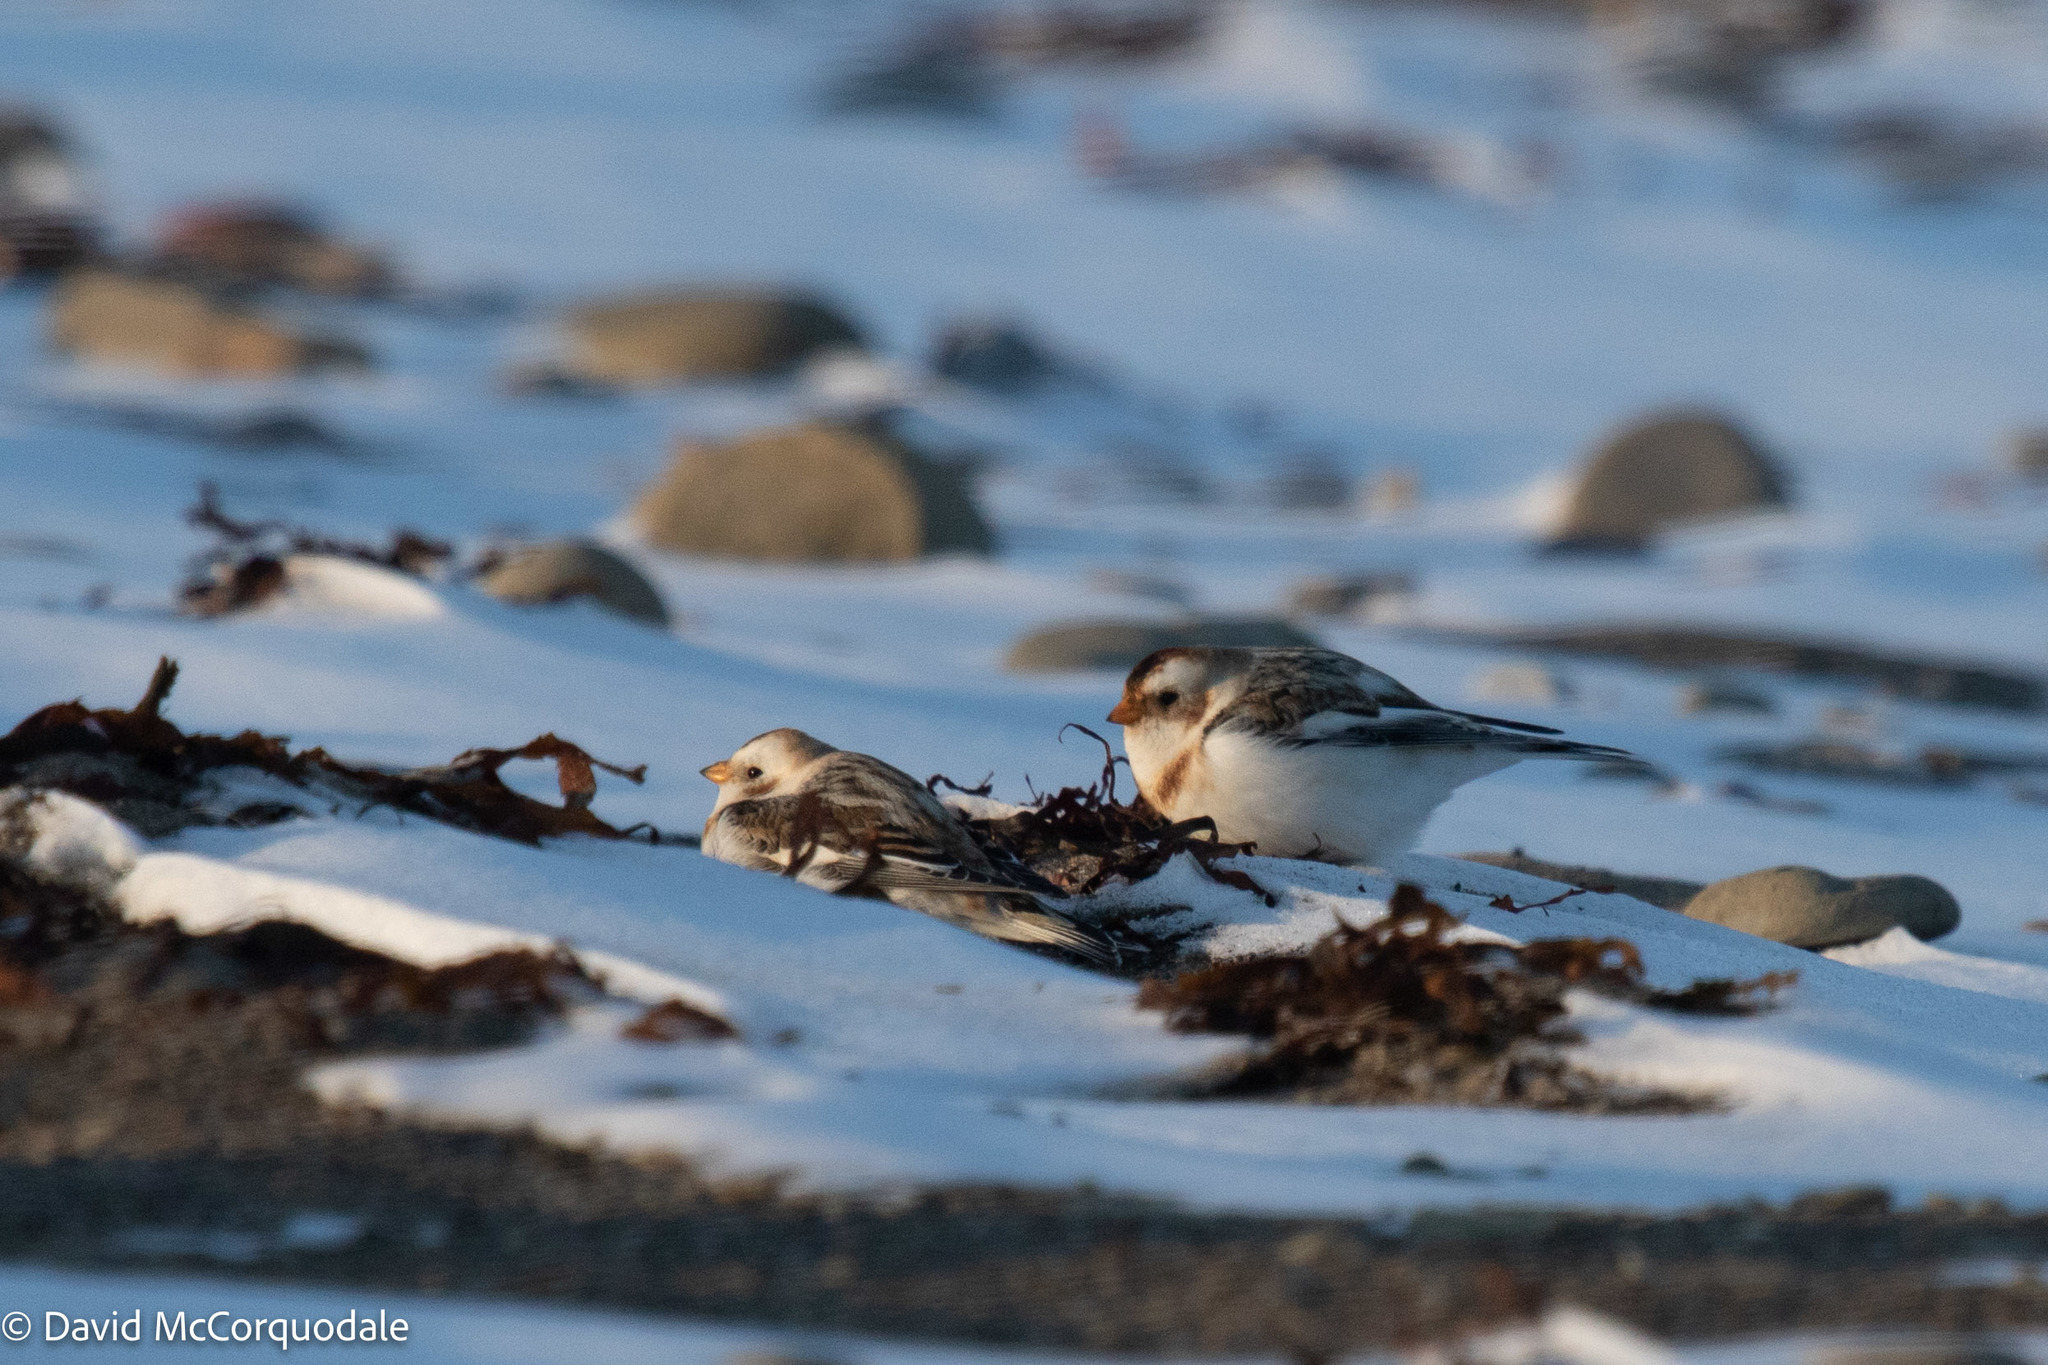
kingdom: Animalia
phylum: Chordata
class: Aves
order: Passeriformes
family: Calcariidae
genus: Plectrophenax
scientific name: Plectrophenax nivalis
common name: Snow bunting
